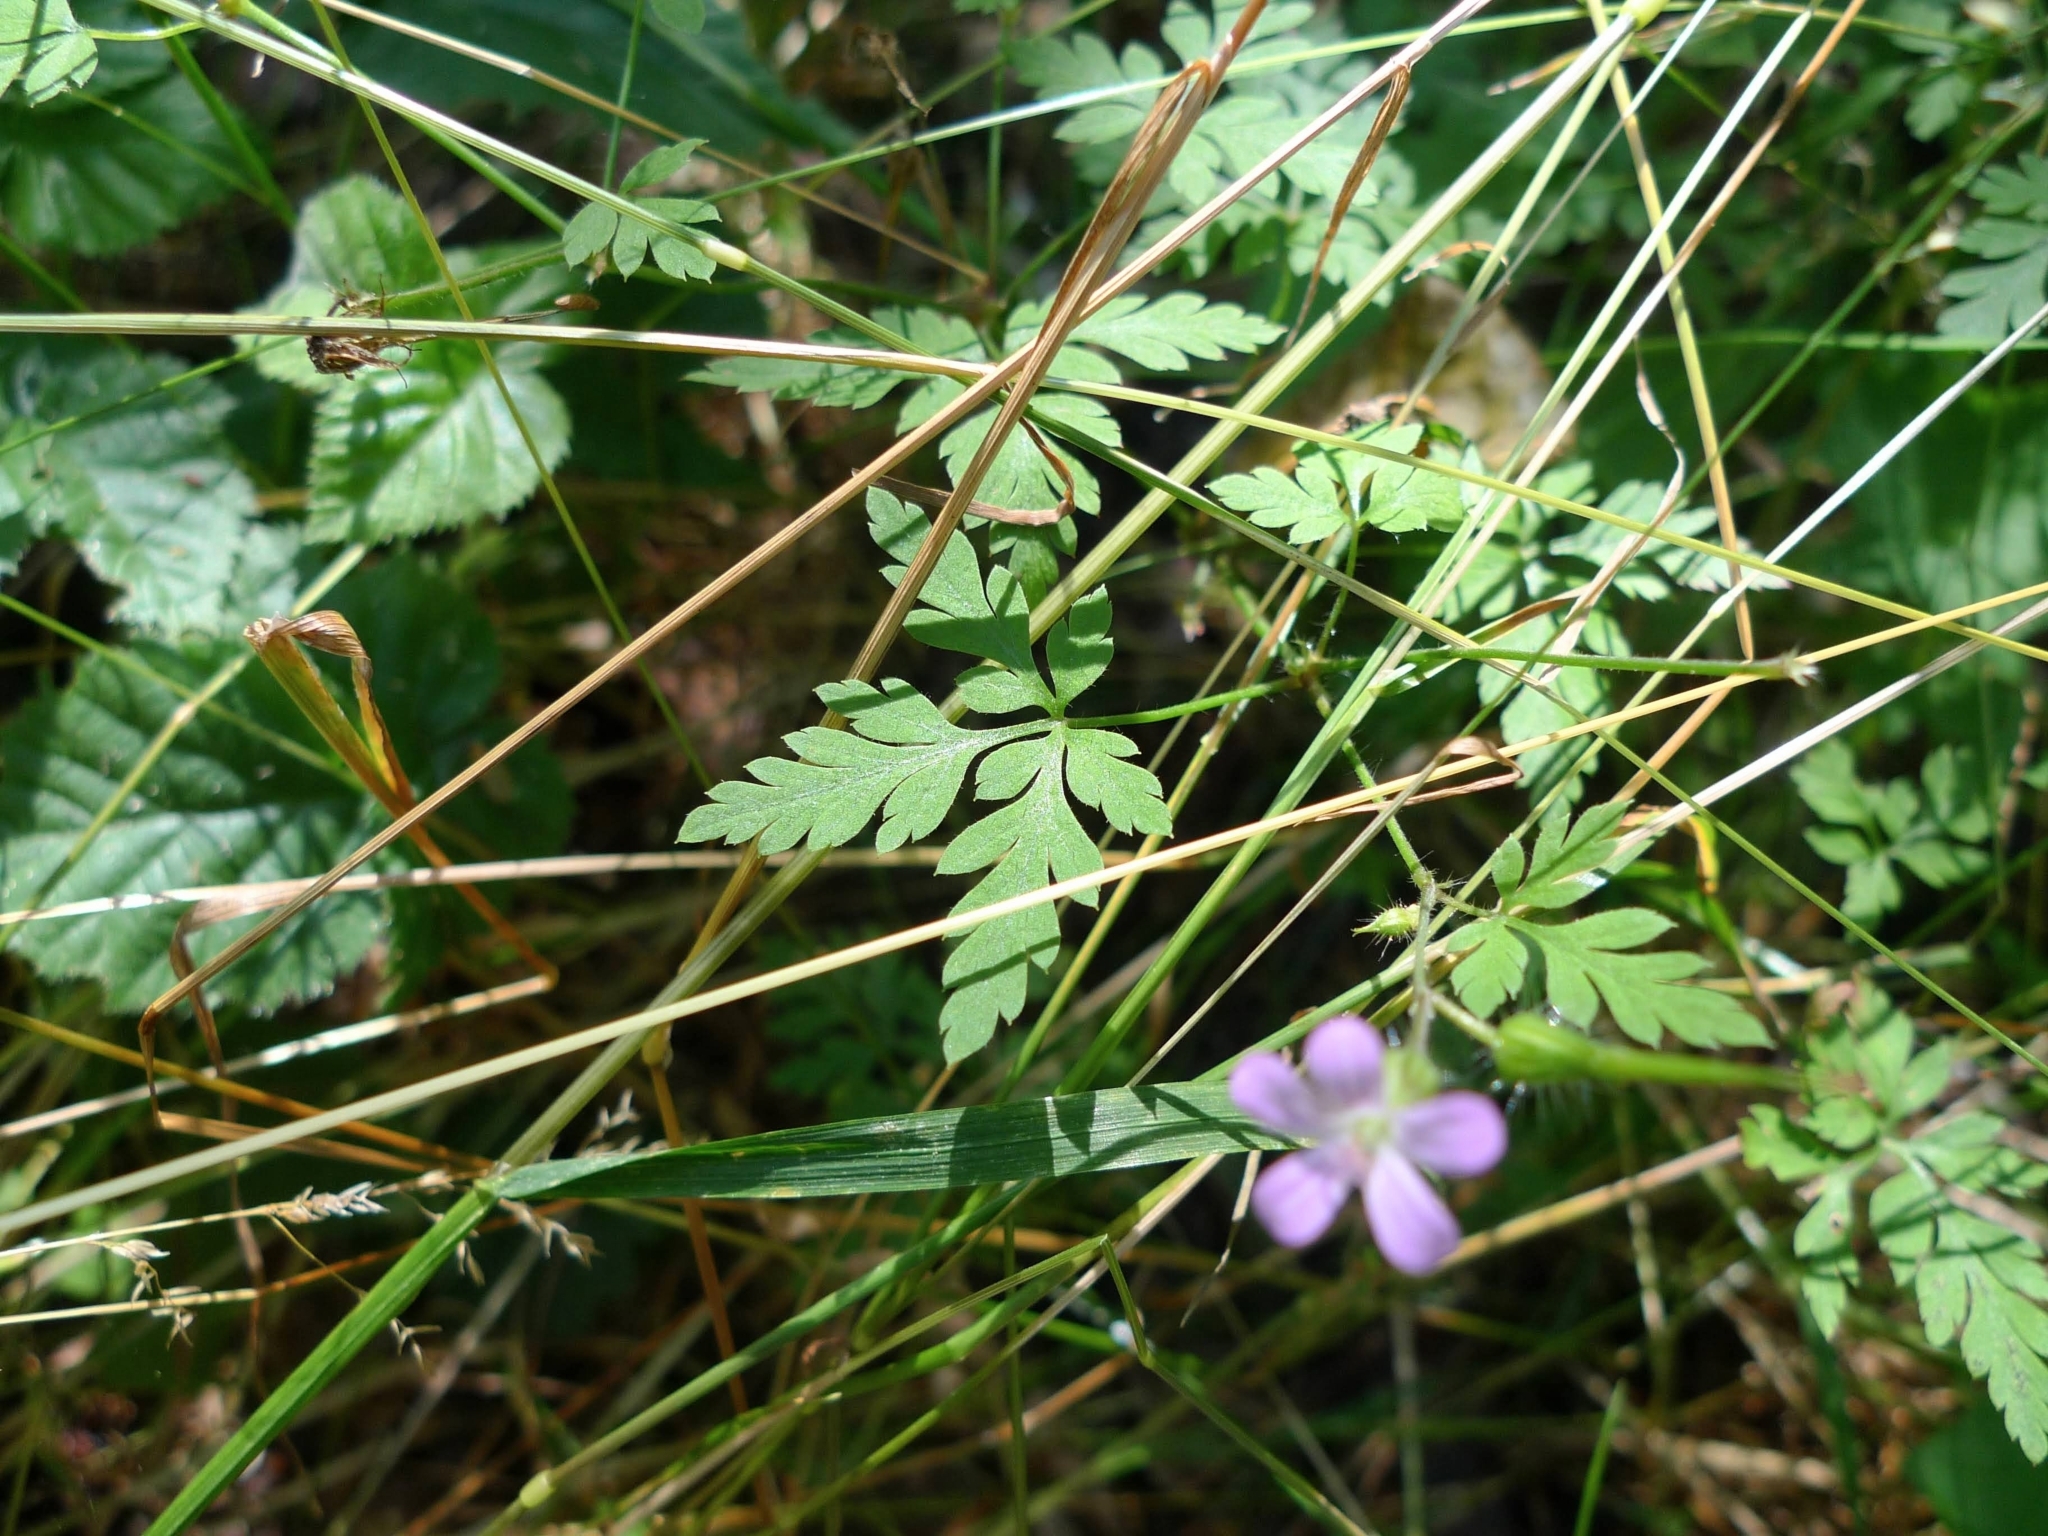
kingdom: Plantae
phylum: Tracheophyta
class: Magnoliopsida
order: Geraniales
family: Geraniaceae
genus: Geranium
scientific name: Geranium robertianum
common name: Herb-robert
